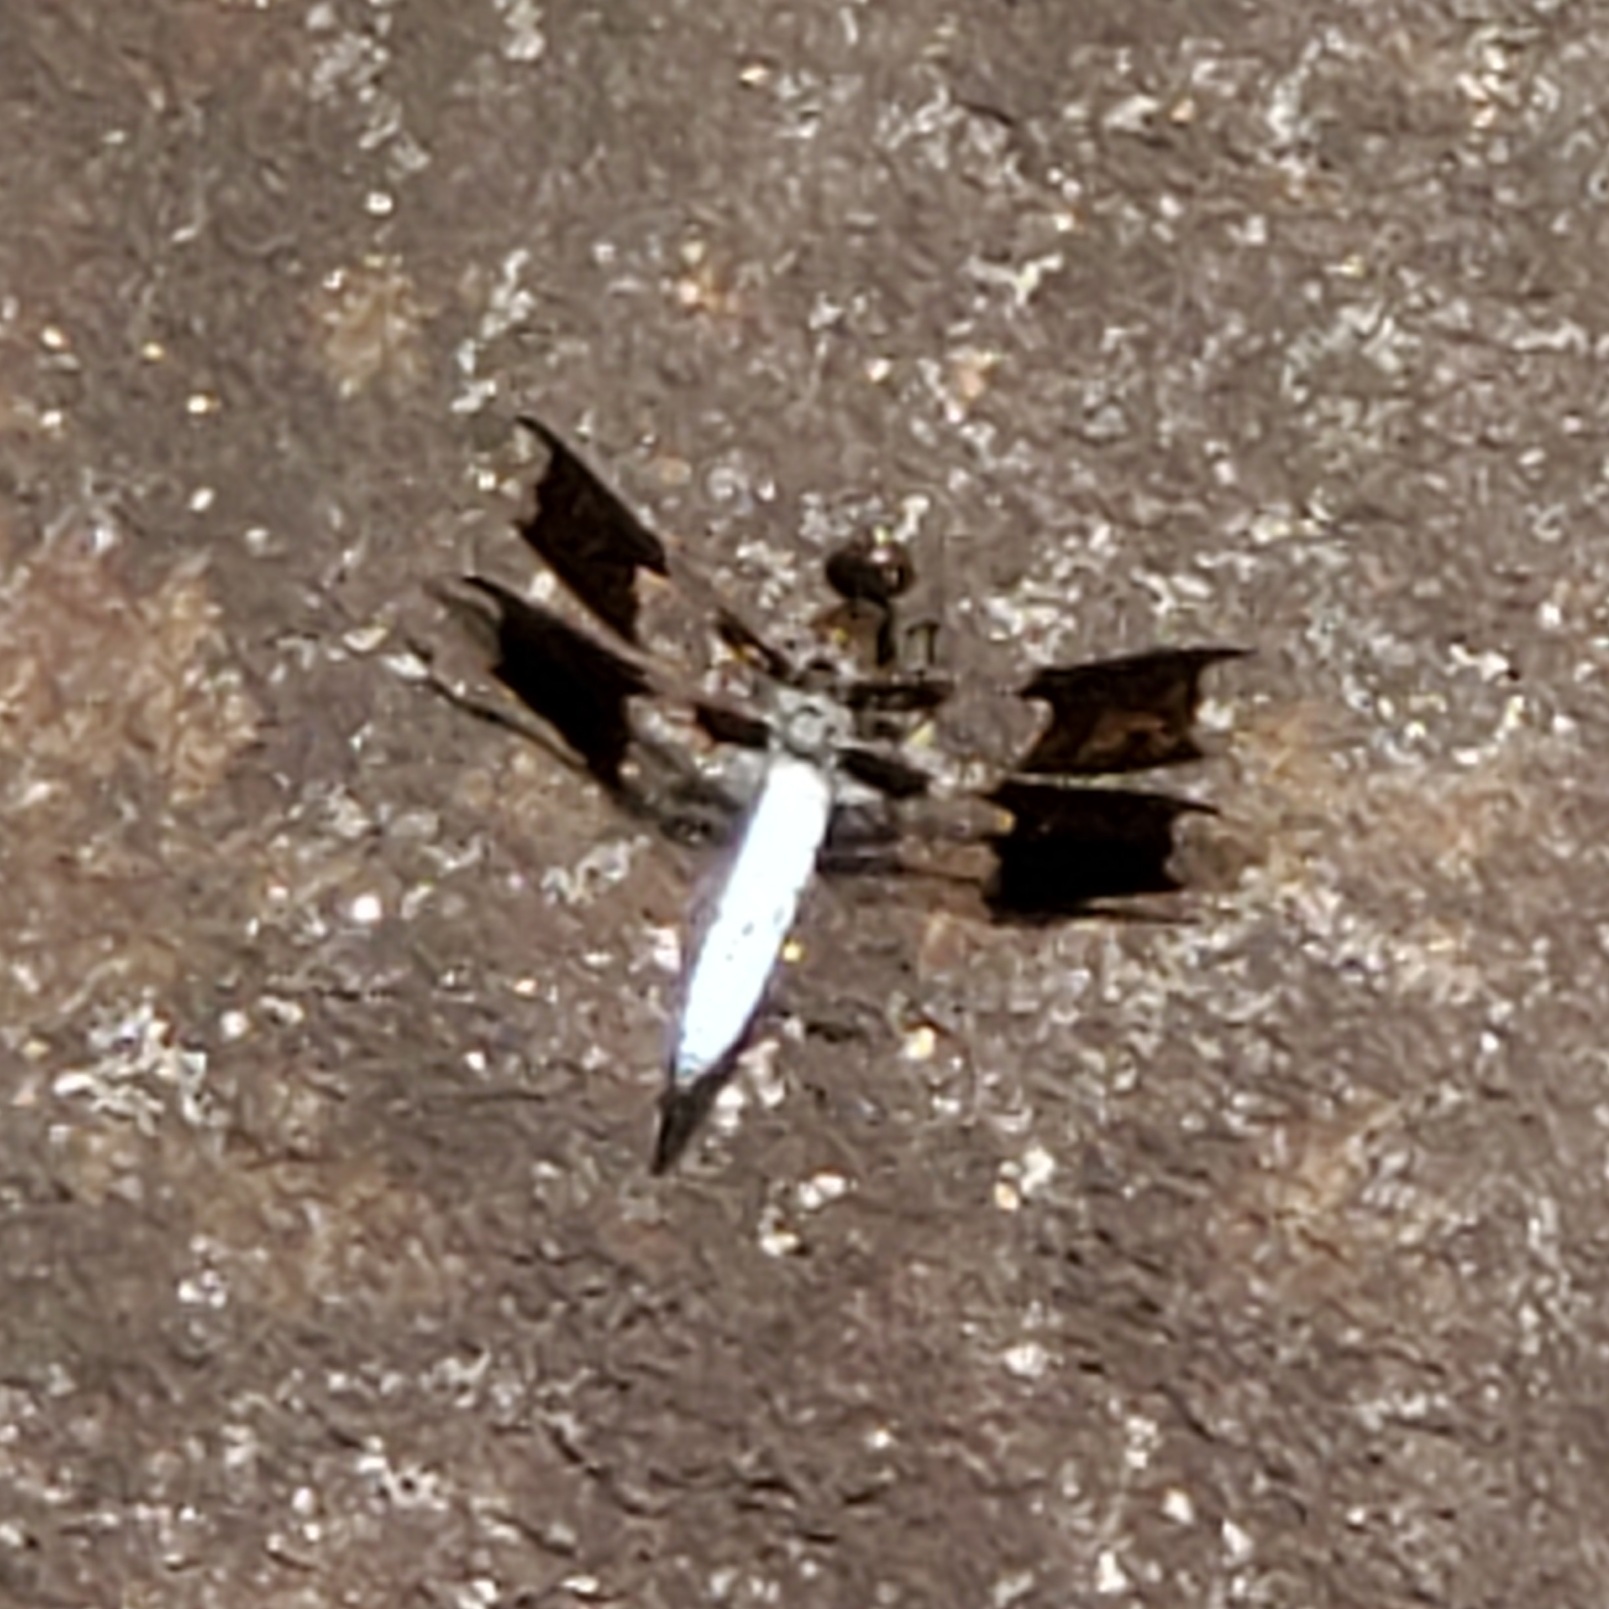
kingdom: Animalia
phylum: Arthropoda
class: Insecta
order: Odonata
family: Libellulidae
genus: Plathemis
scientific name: Plathemis lydia
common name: Common whitetail
